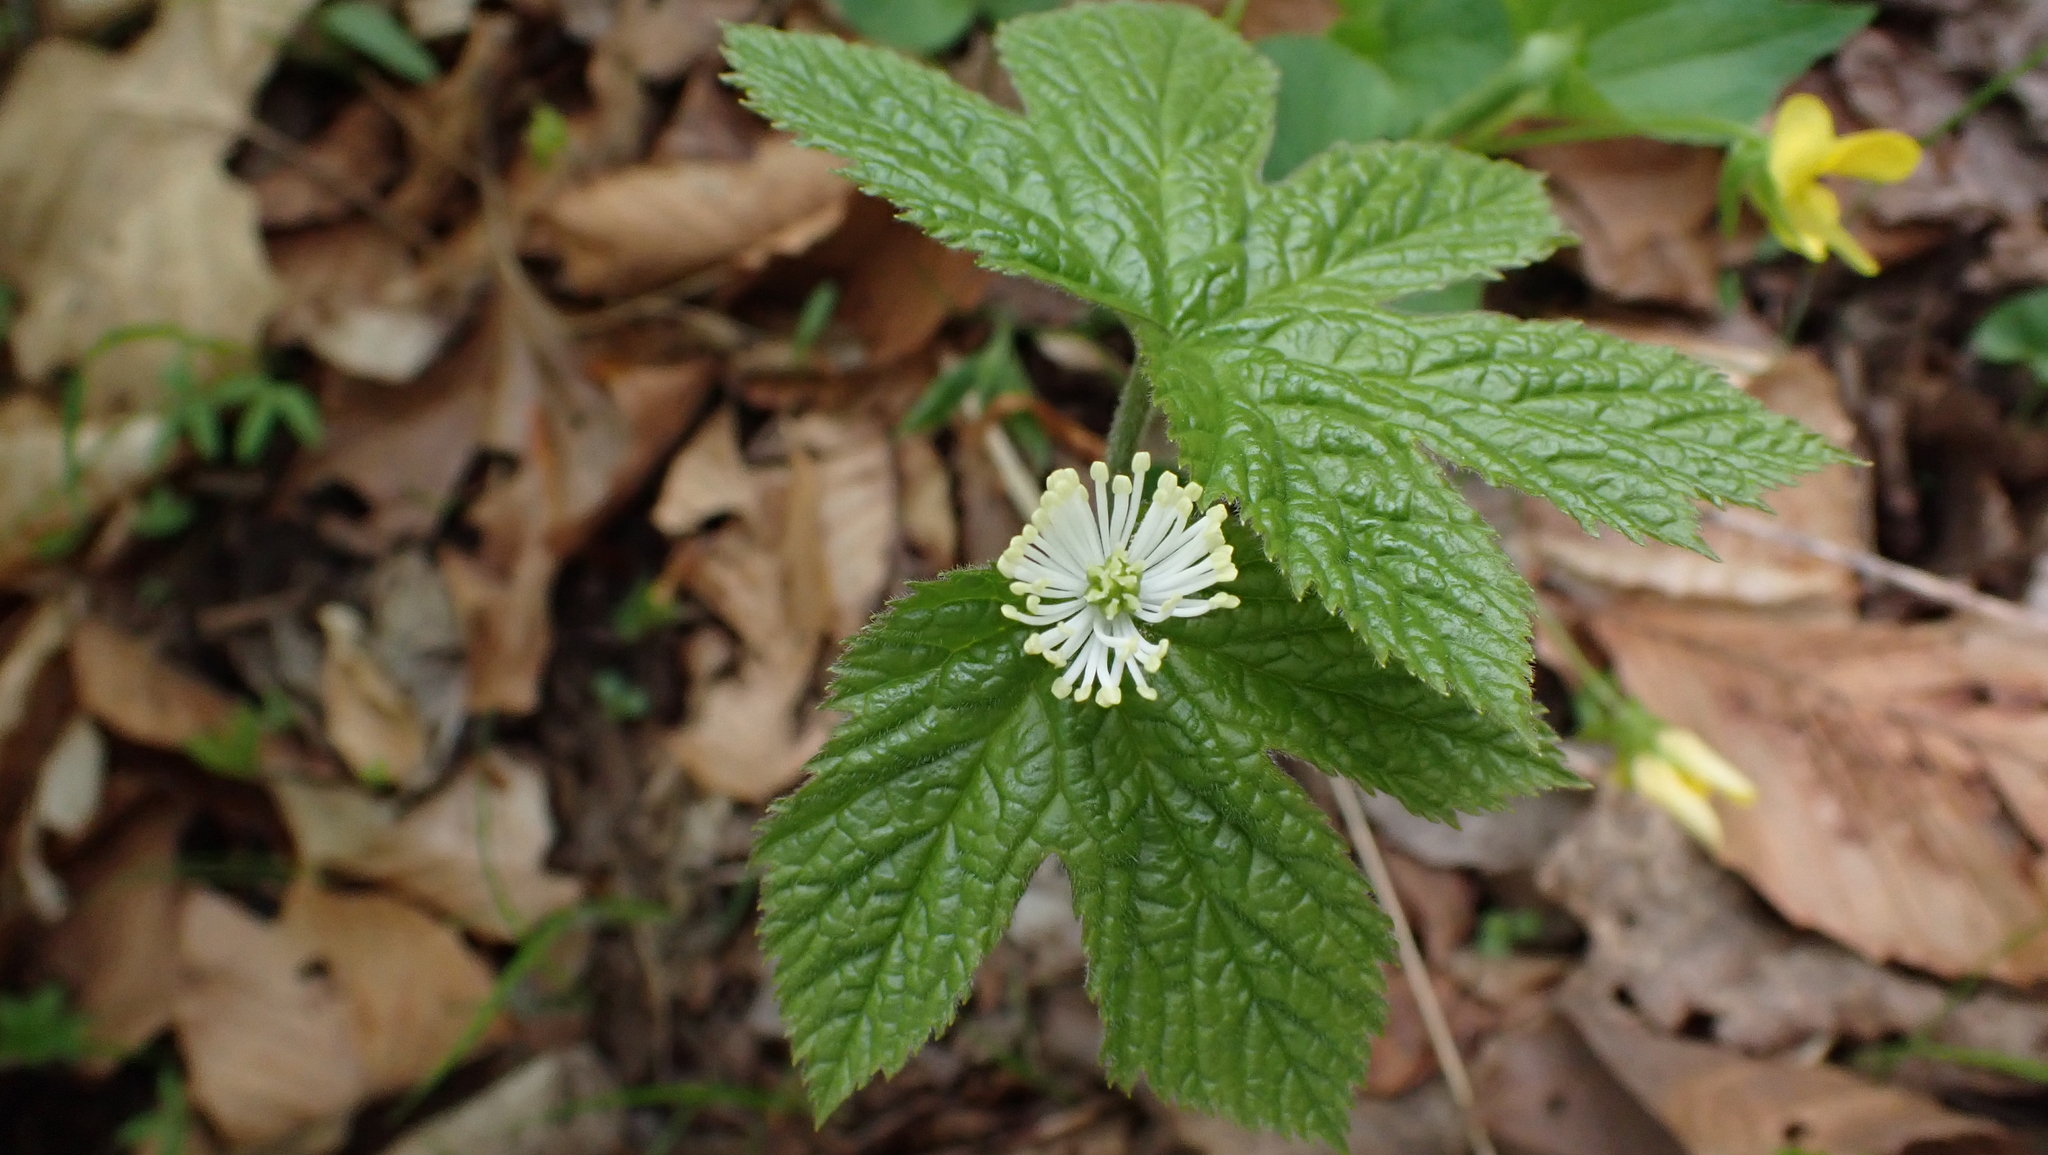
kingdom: Plantae
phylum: Tracheophyta
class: Magnoliopsida
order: Ranunculales
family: Ranunculaceae
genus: Hydrastis
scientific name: Hydrastis canadensis
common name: Goldenseal
